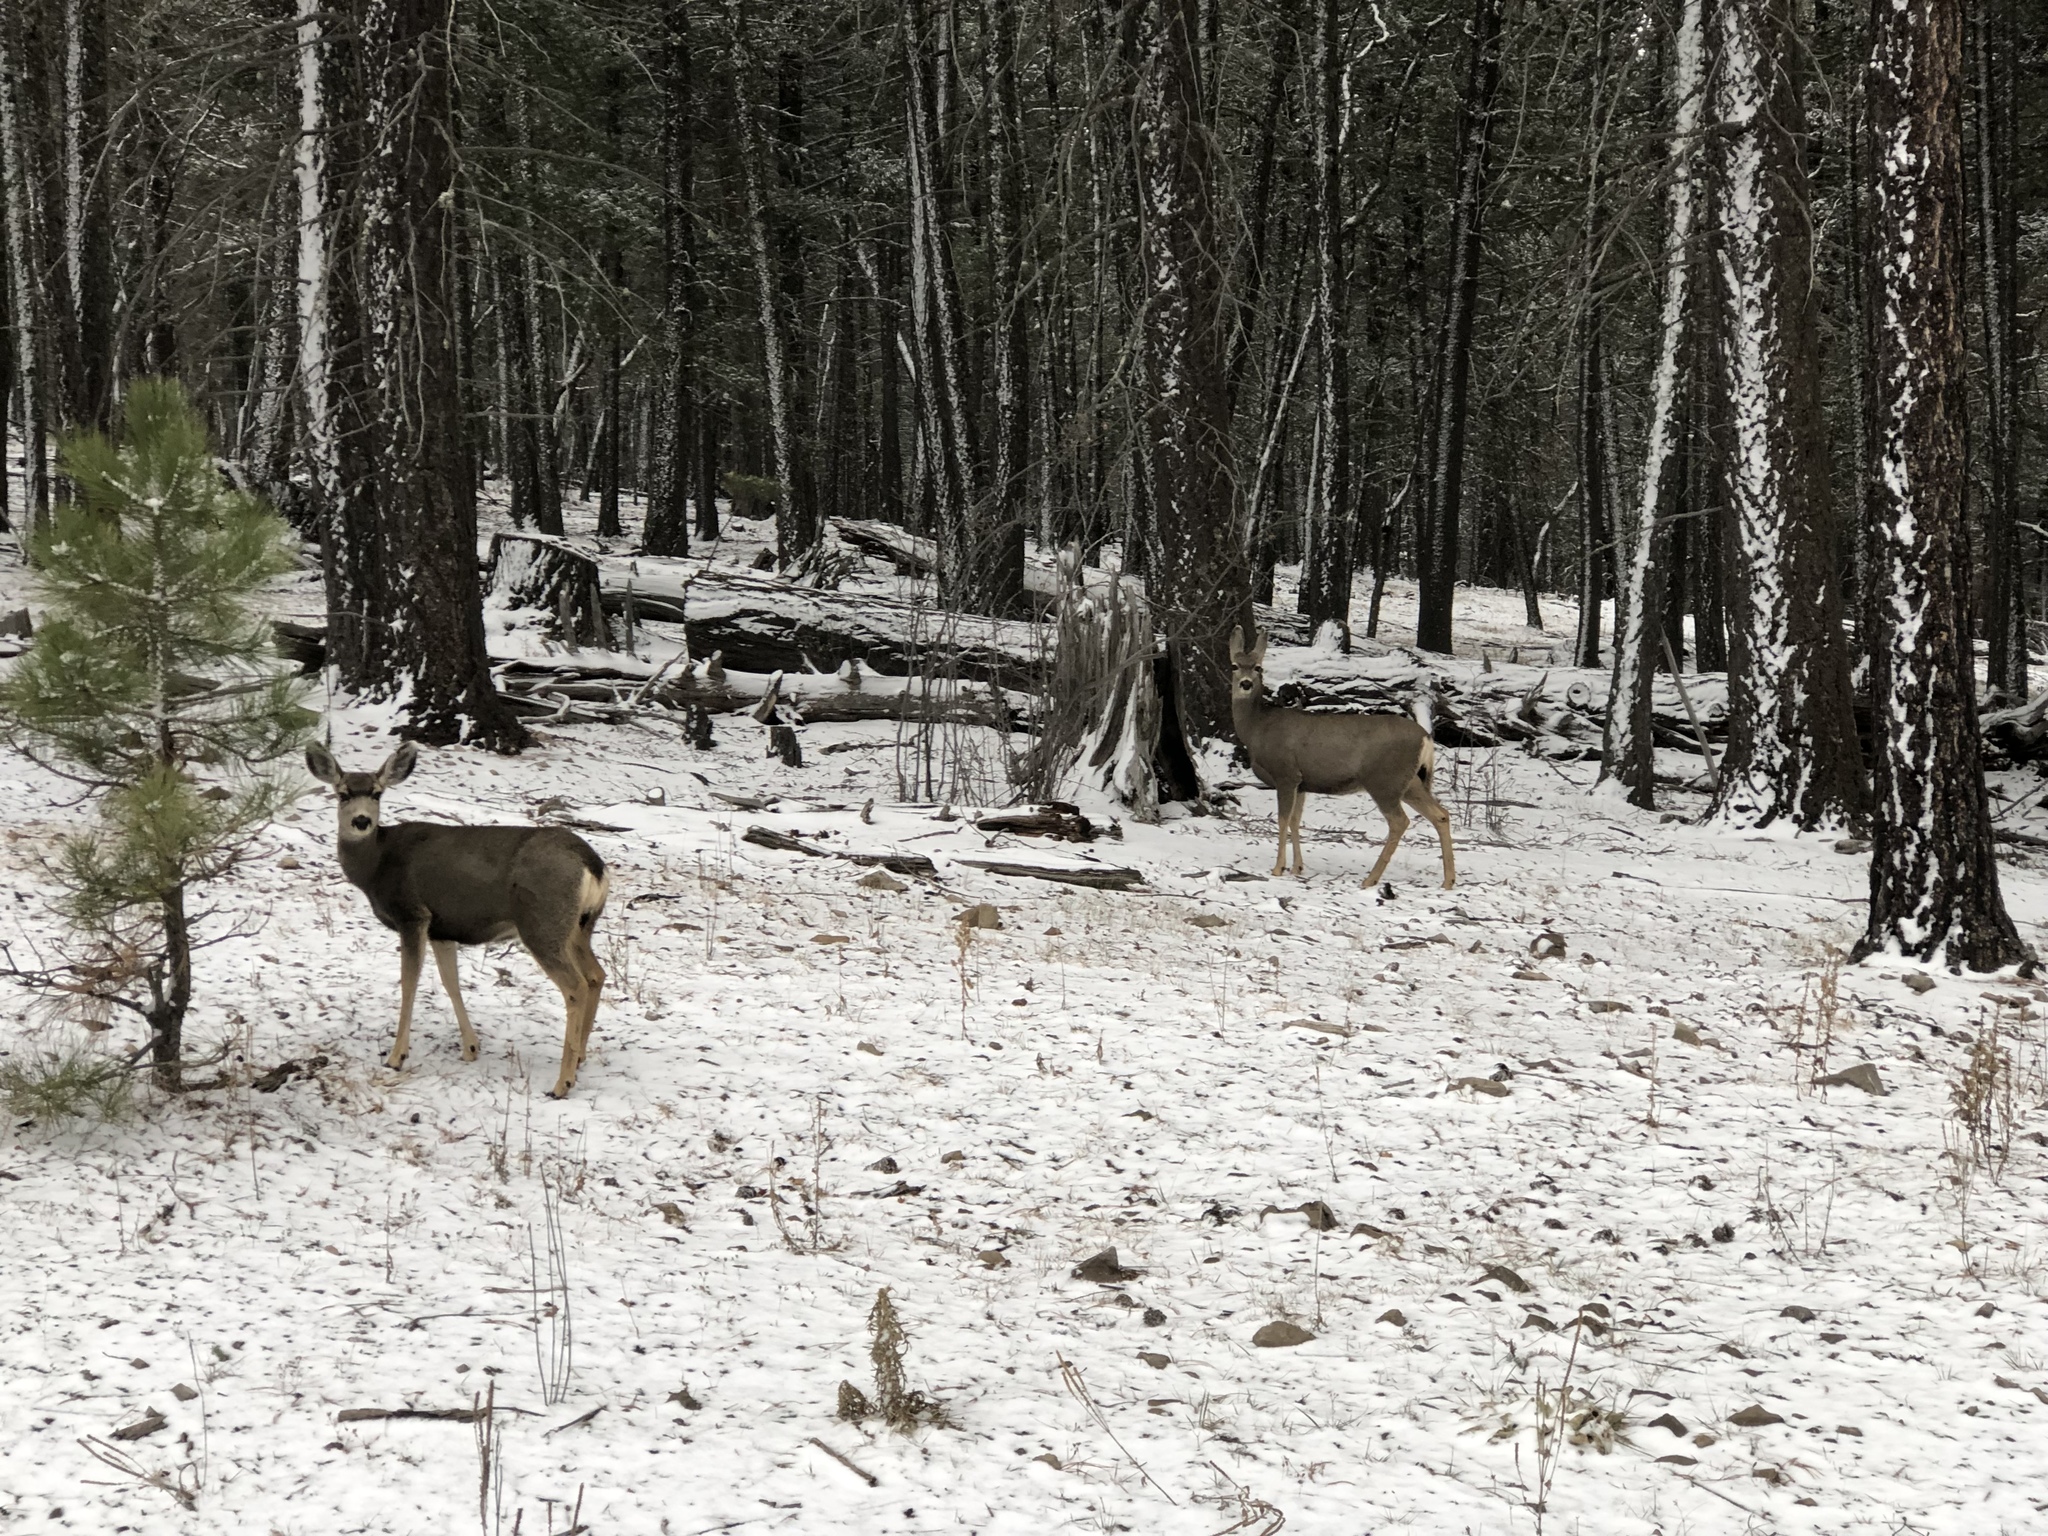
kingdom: Animalia
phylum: Chordata
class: Mammalia
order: Artiodactyla
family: Cervidae
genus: Odocoileus
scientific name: Odocoileus hemionus
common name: Mule deer
